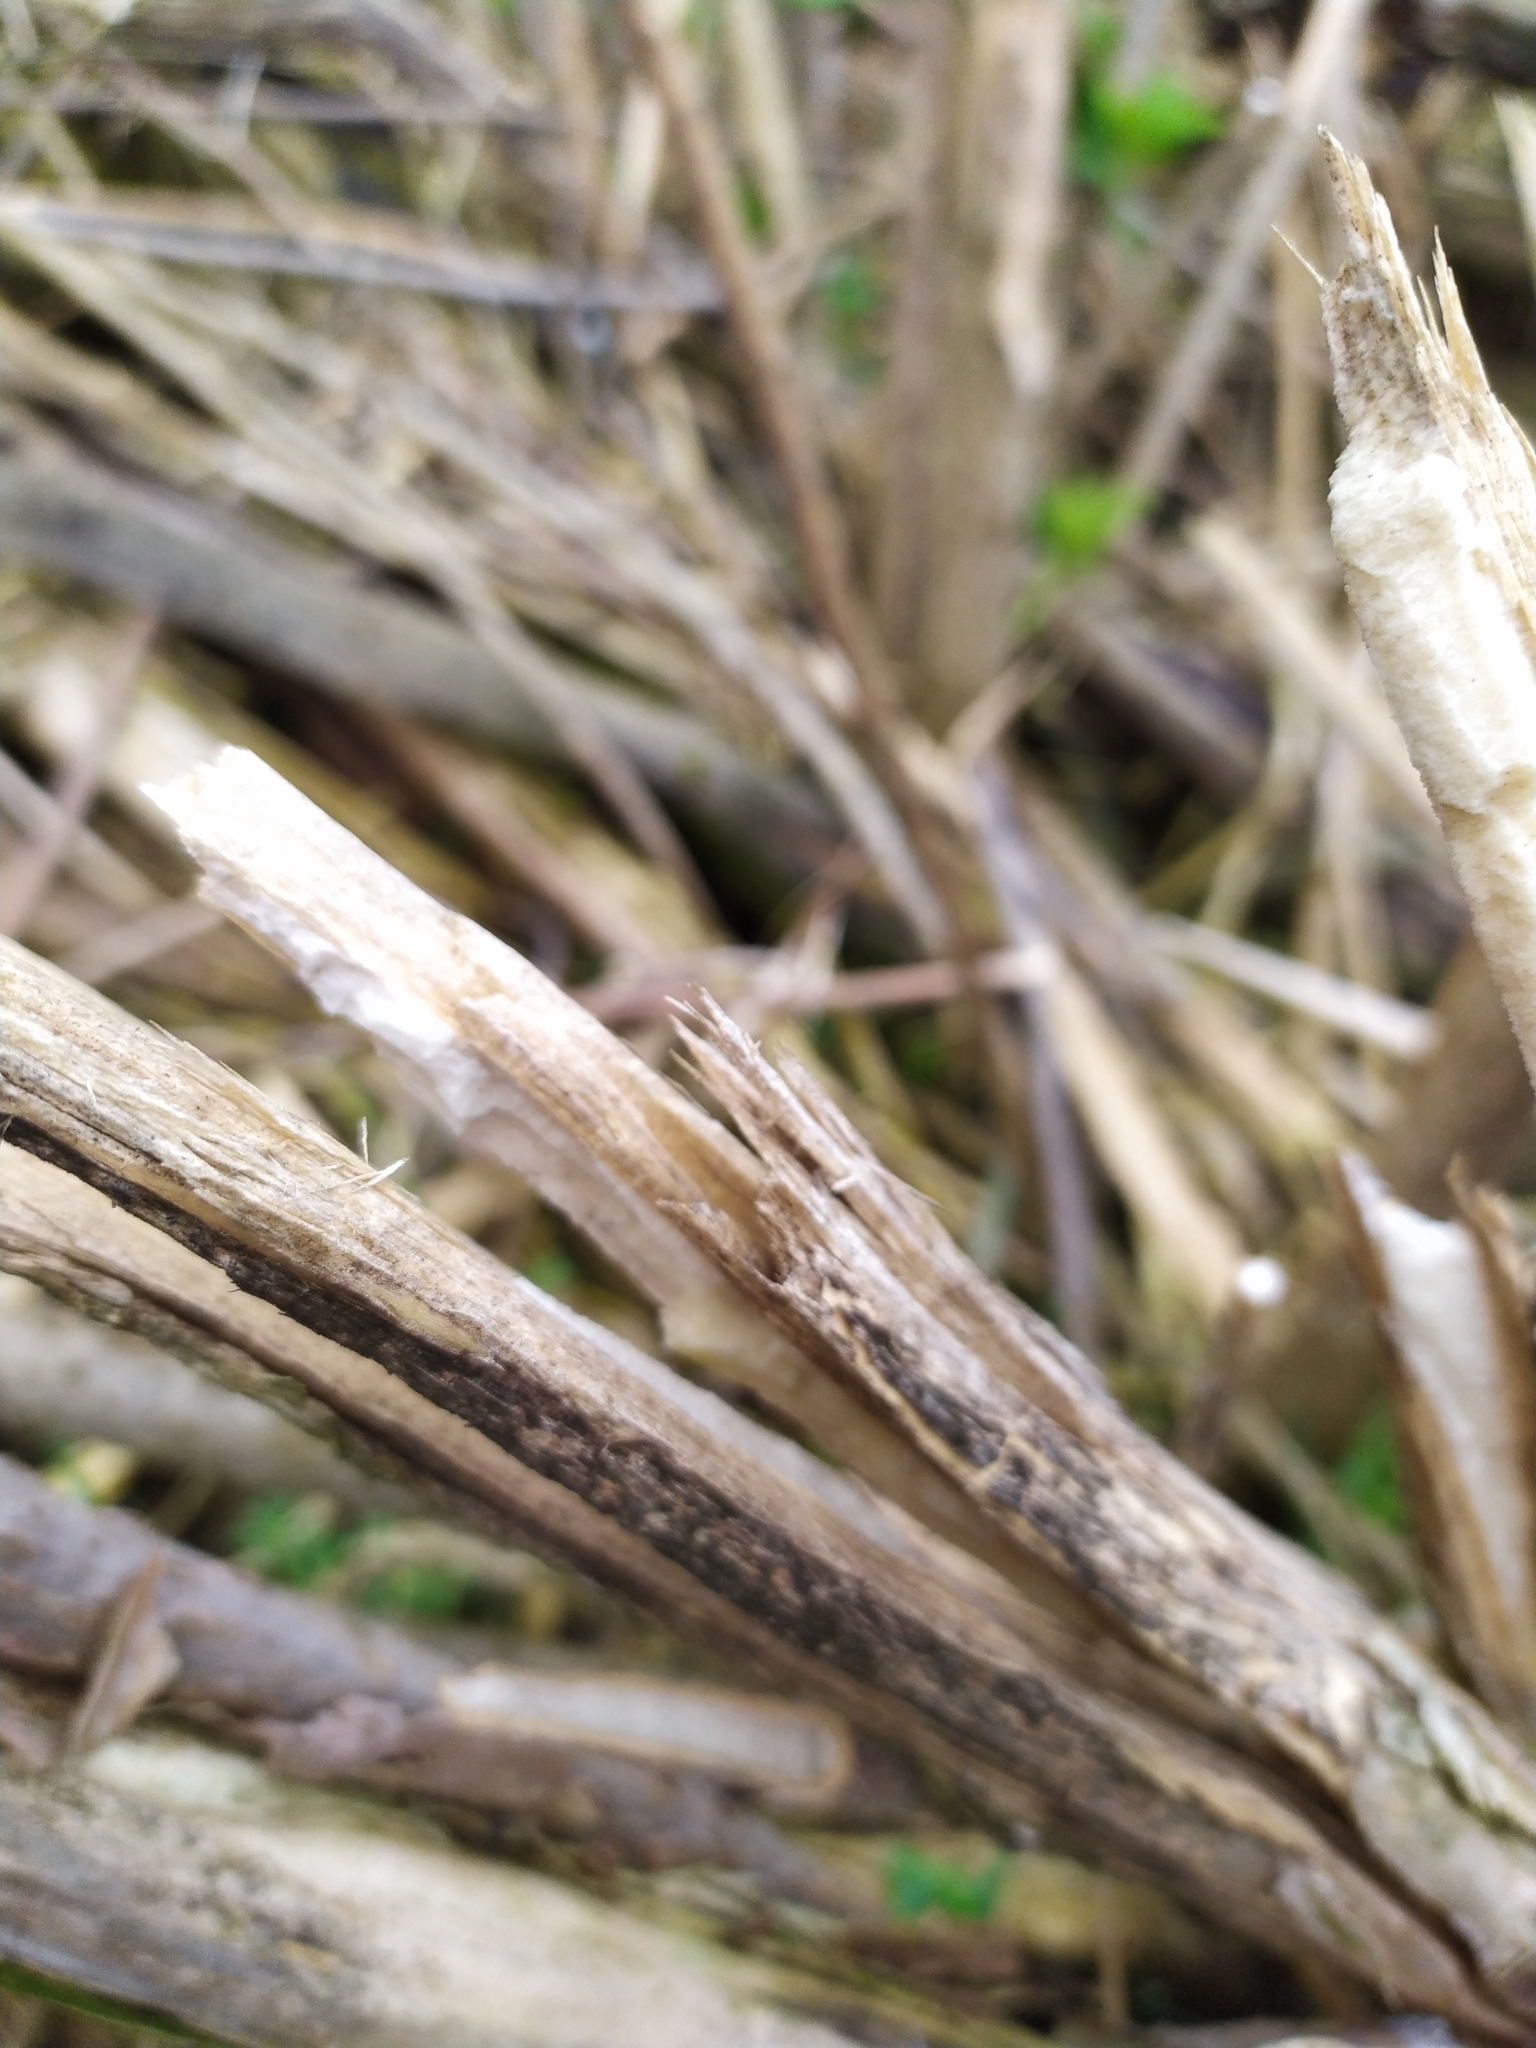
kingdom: Plantae
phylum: Tracheophyta
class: Magnoliopsida
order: Dipsacales
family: Viburnaceae
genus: Sambucus
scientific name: Sambucus nigra
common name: Elder
